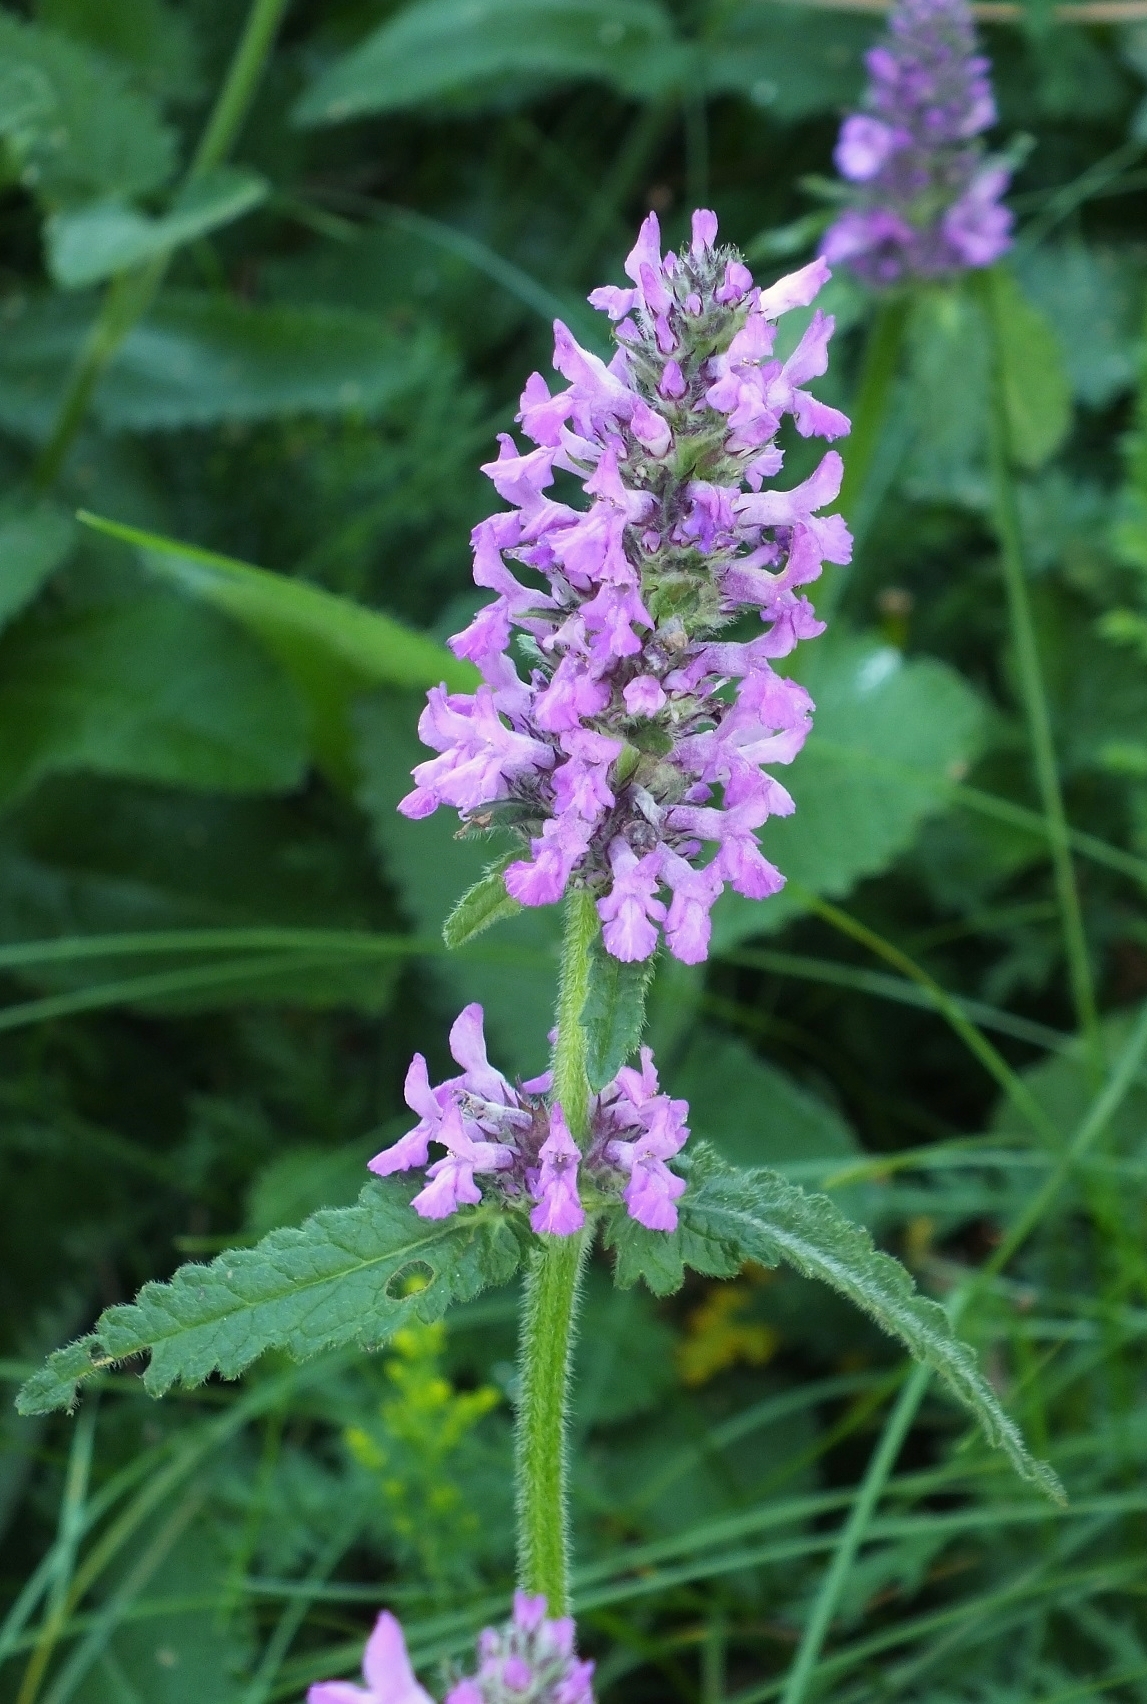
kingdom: Plantae
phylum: Tracheophyta
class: Magnoliopsida
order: Lamiales
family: Lamiaceae
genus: Betonica
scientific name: Betonica officinalis
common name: Bishop's-wort
